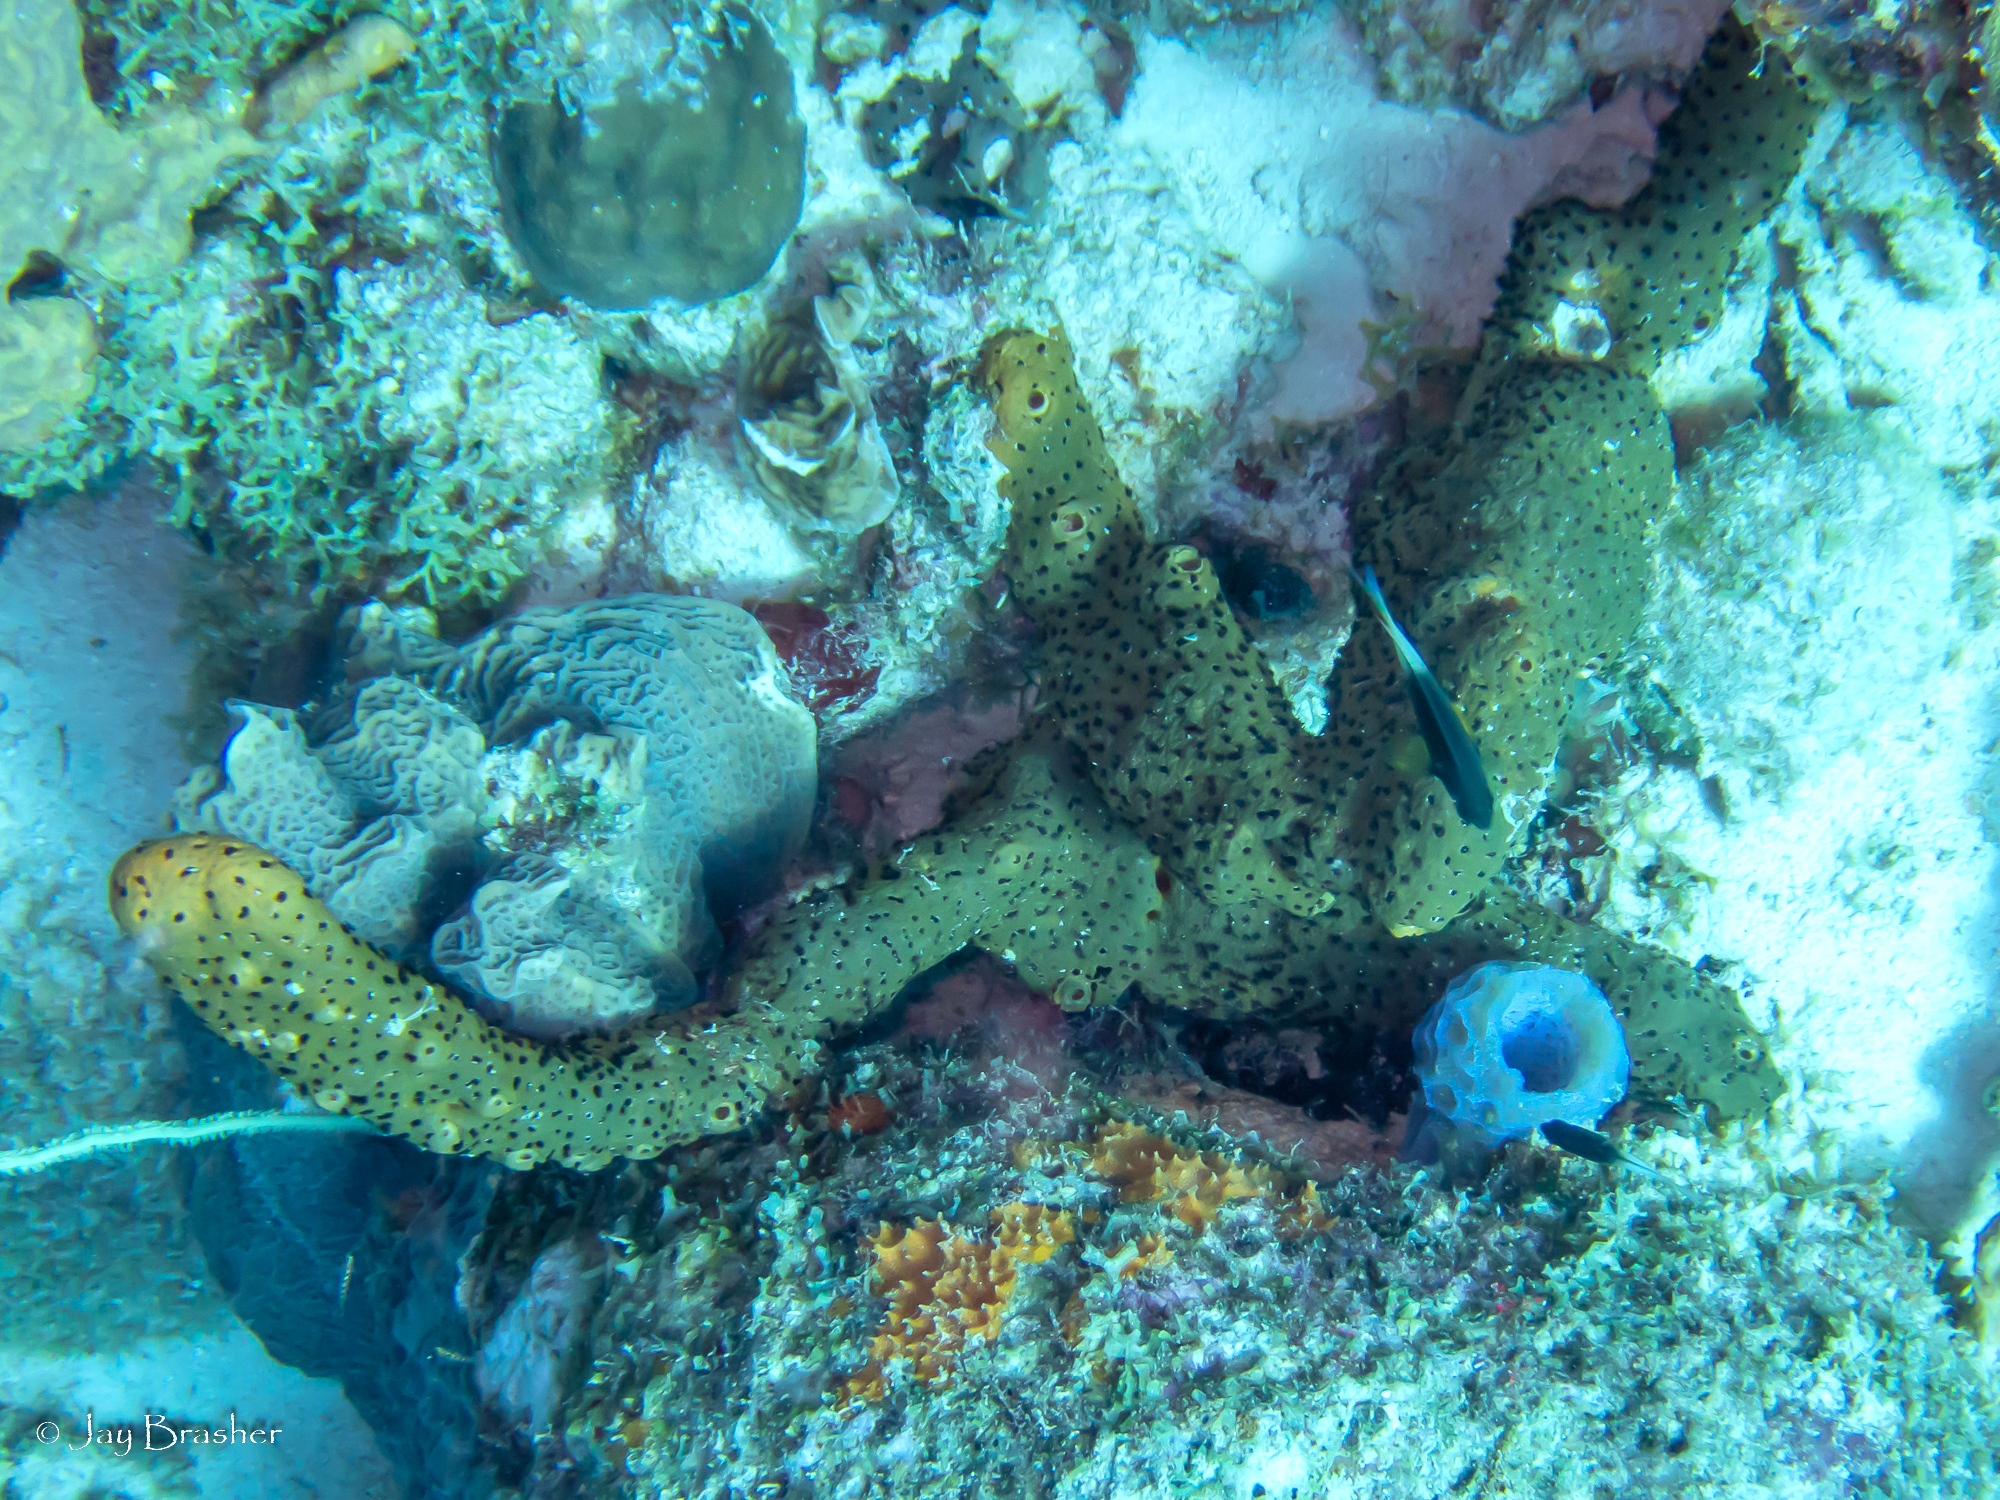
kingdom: Animalia
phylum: Cnidaria
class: Anthozoa
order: Zoantharia
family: Parazoanthidae
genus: Bergia
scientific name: Bergia puertoricense
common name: Maroon sponge zoanthid
